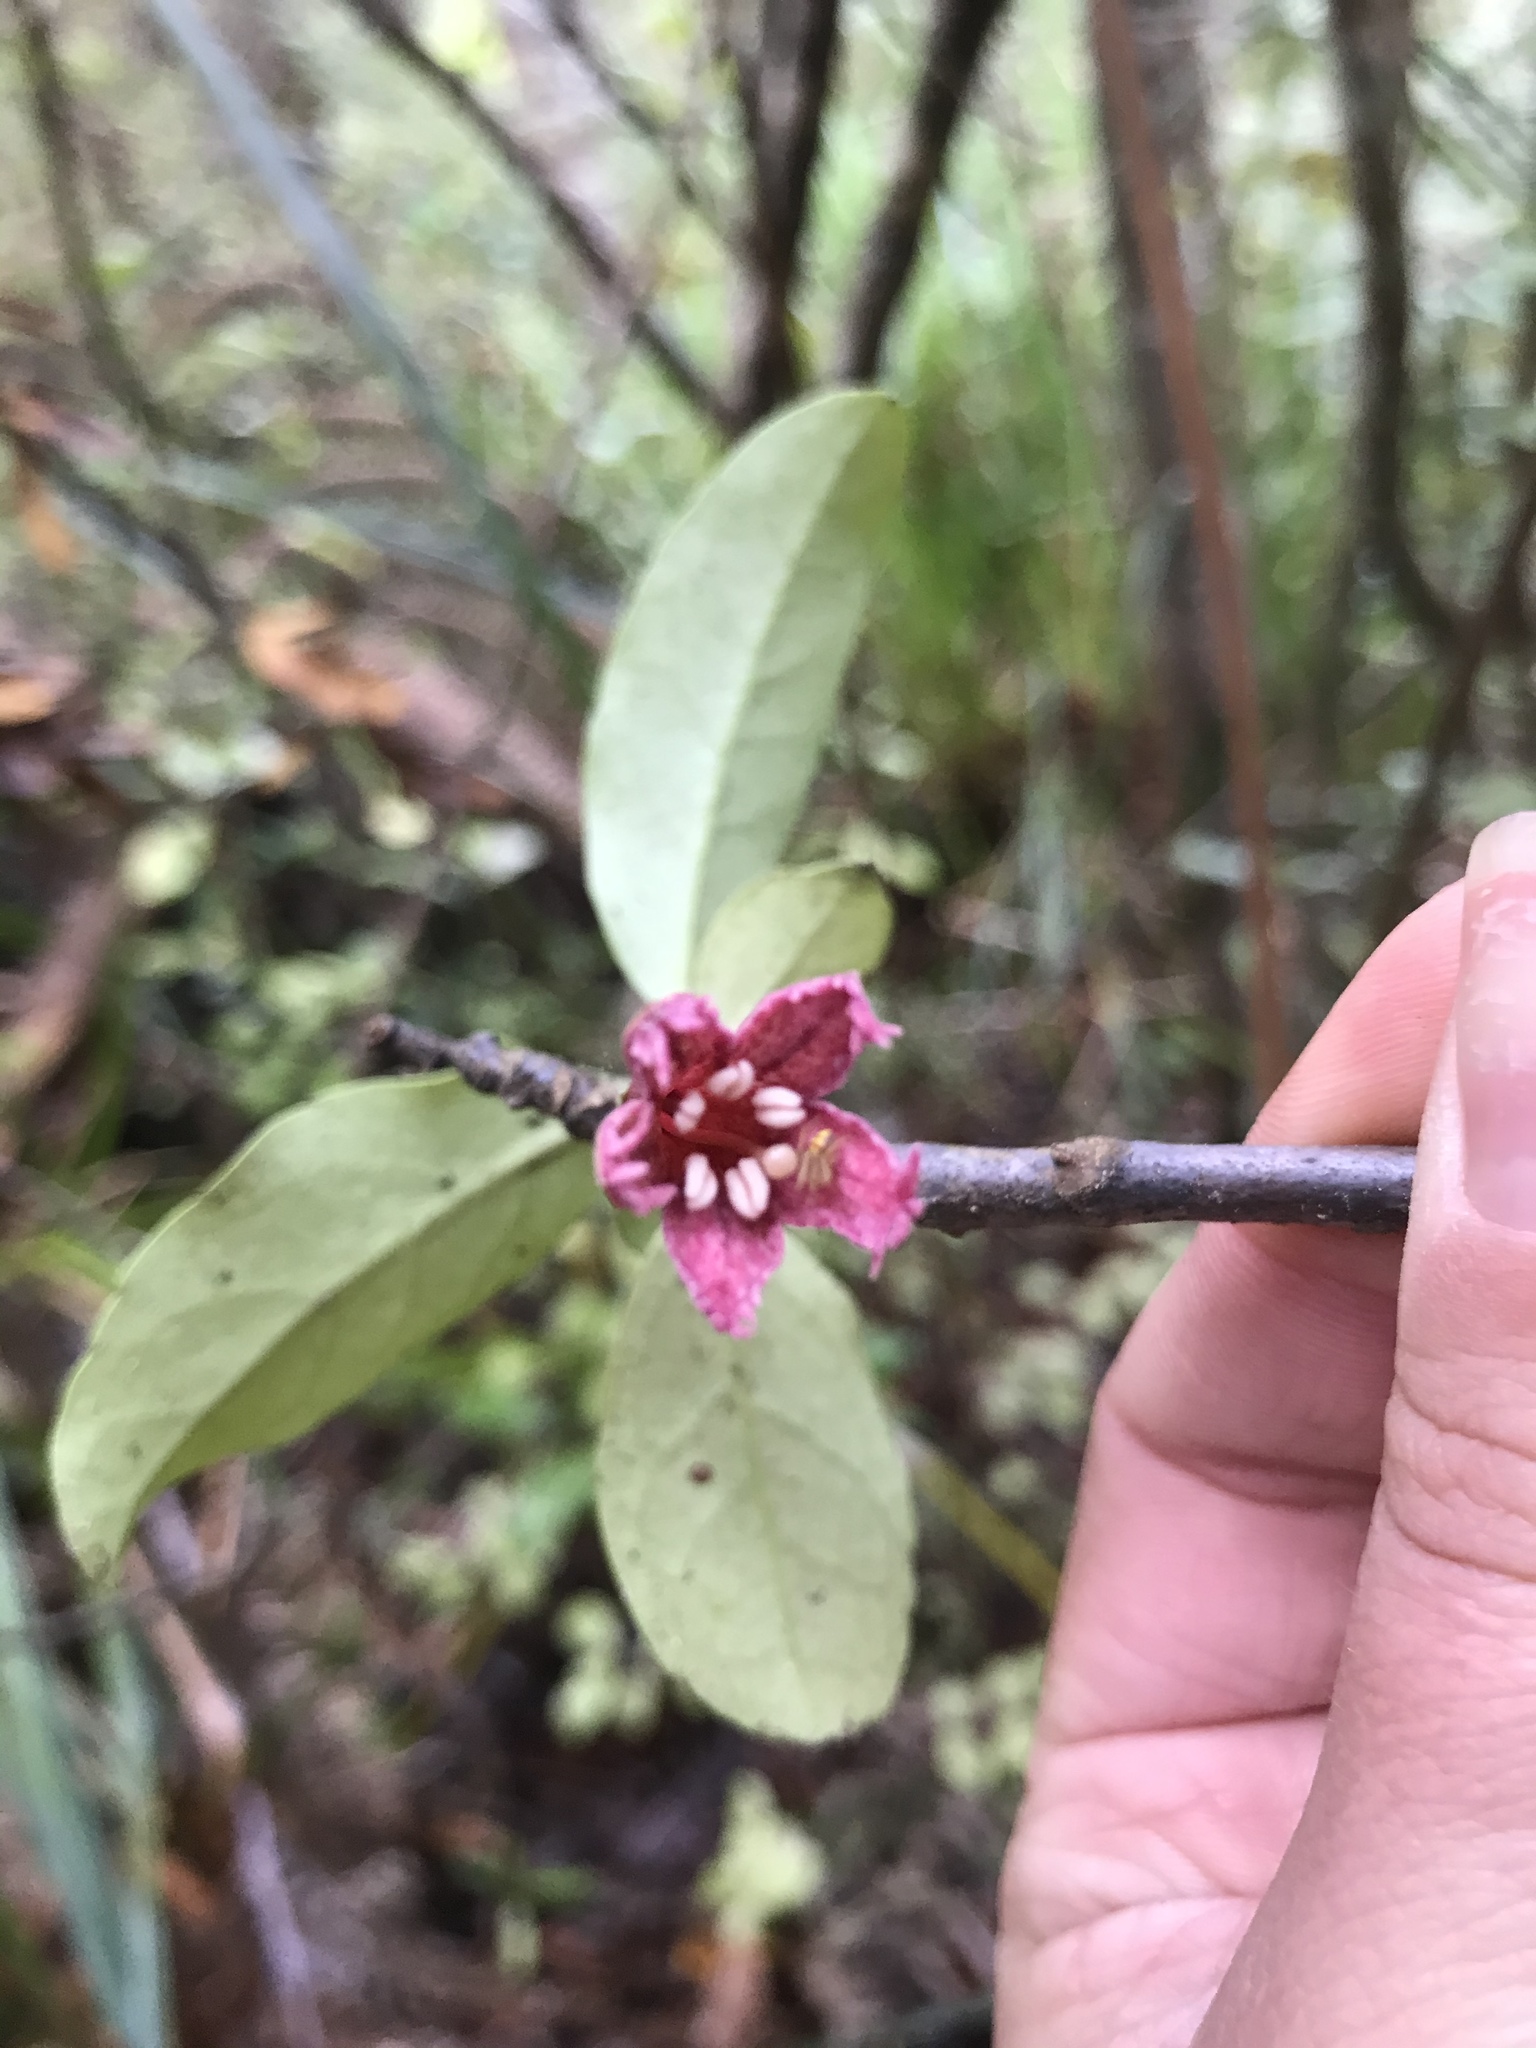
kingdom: Plantae
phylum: Tracheophyta
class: Magnoliopsida
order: Asterales
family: Alseuosmiaceae
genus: Alseuosmia
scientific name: Alseuosmia macrophylla
